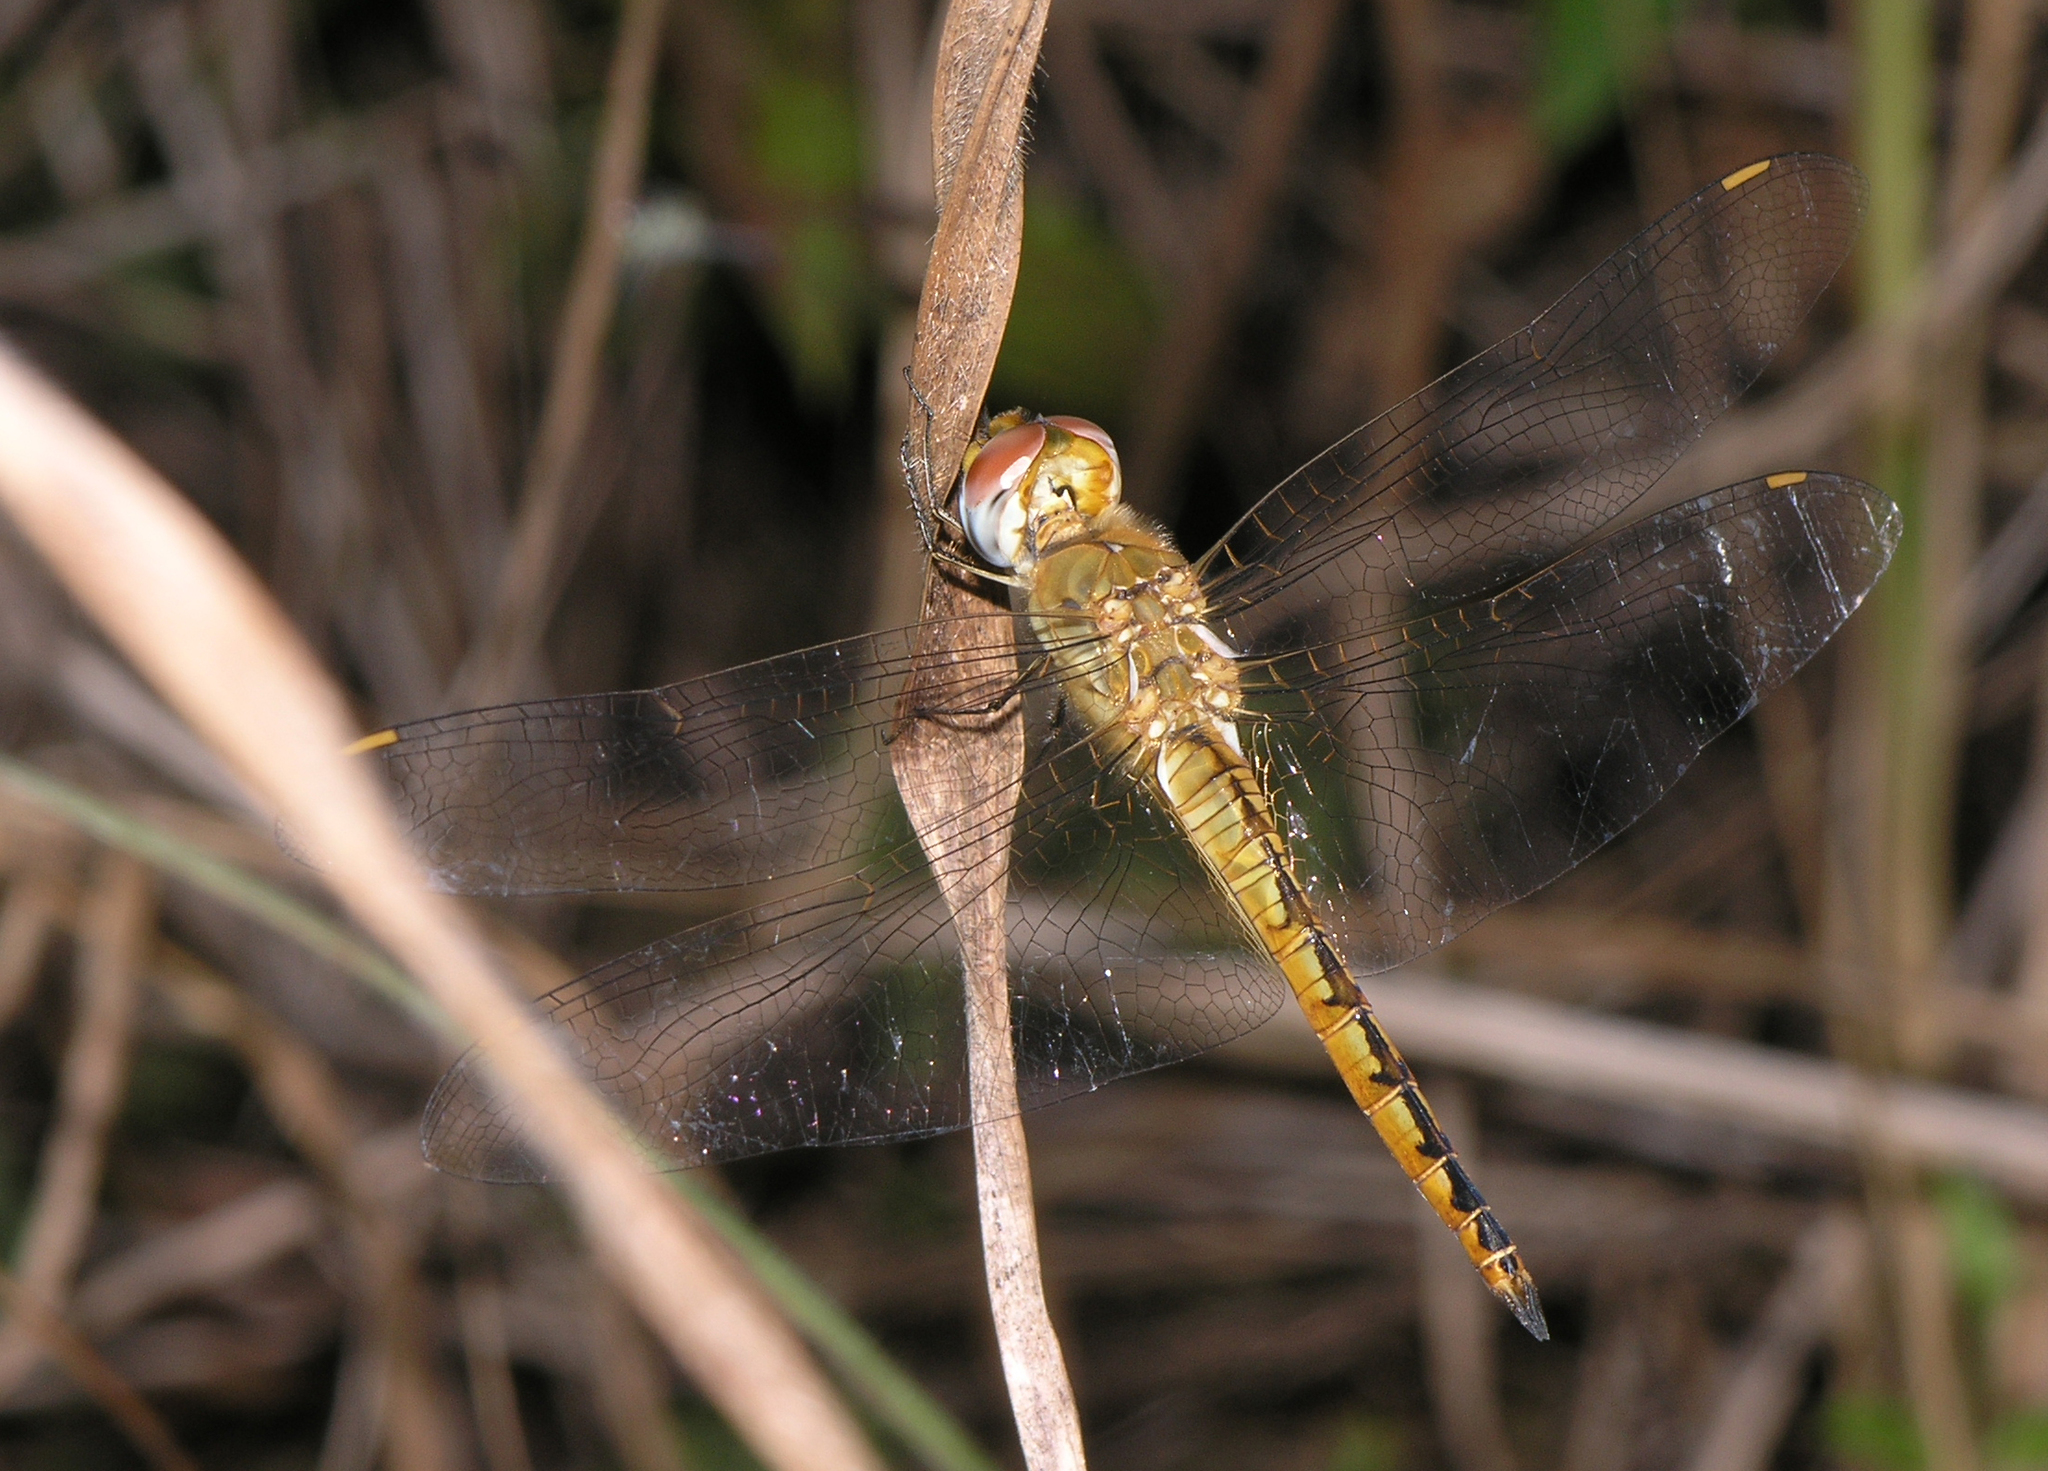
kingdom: Animalia
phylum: Arthropoda
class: Insecta
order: Odonata
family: Libellulidae
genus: Pantala
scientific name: Pantala flavescens
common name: Wandering glider
